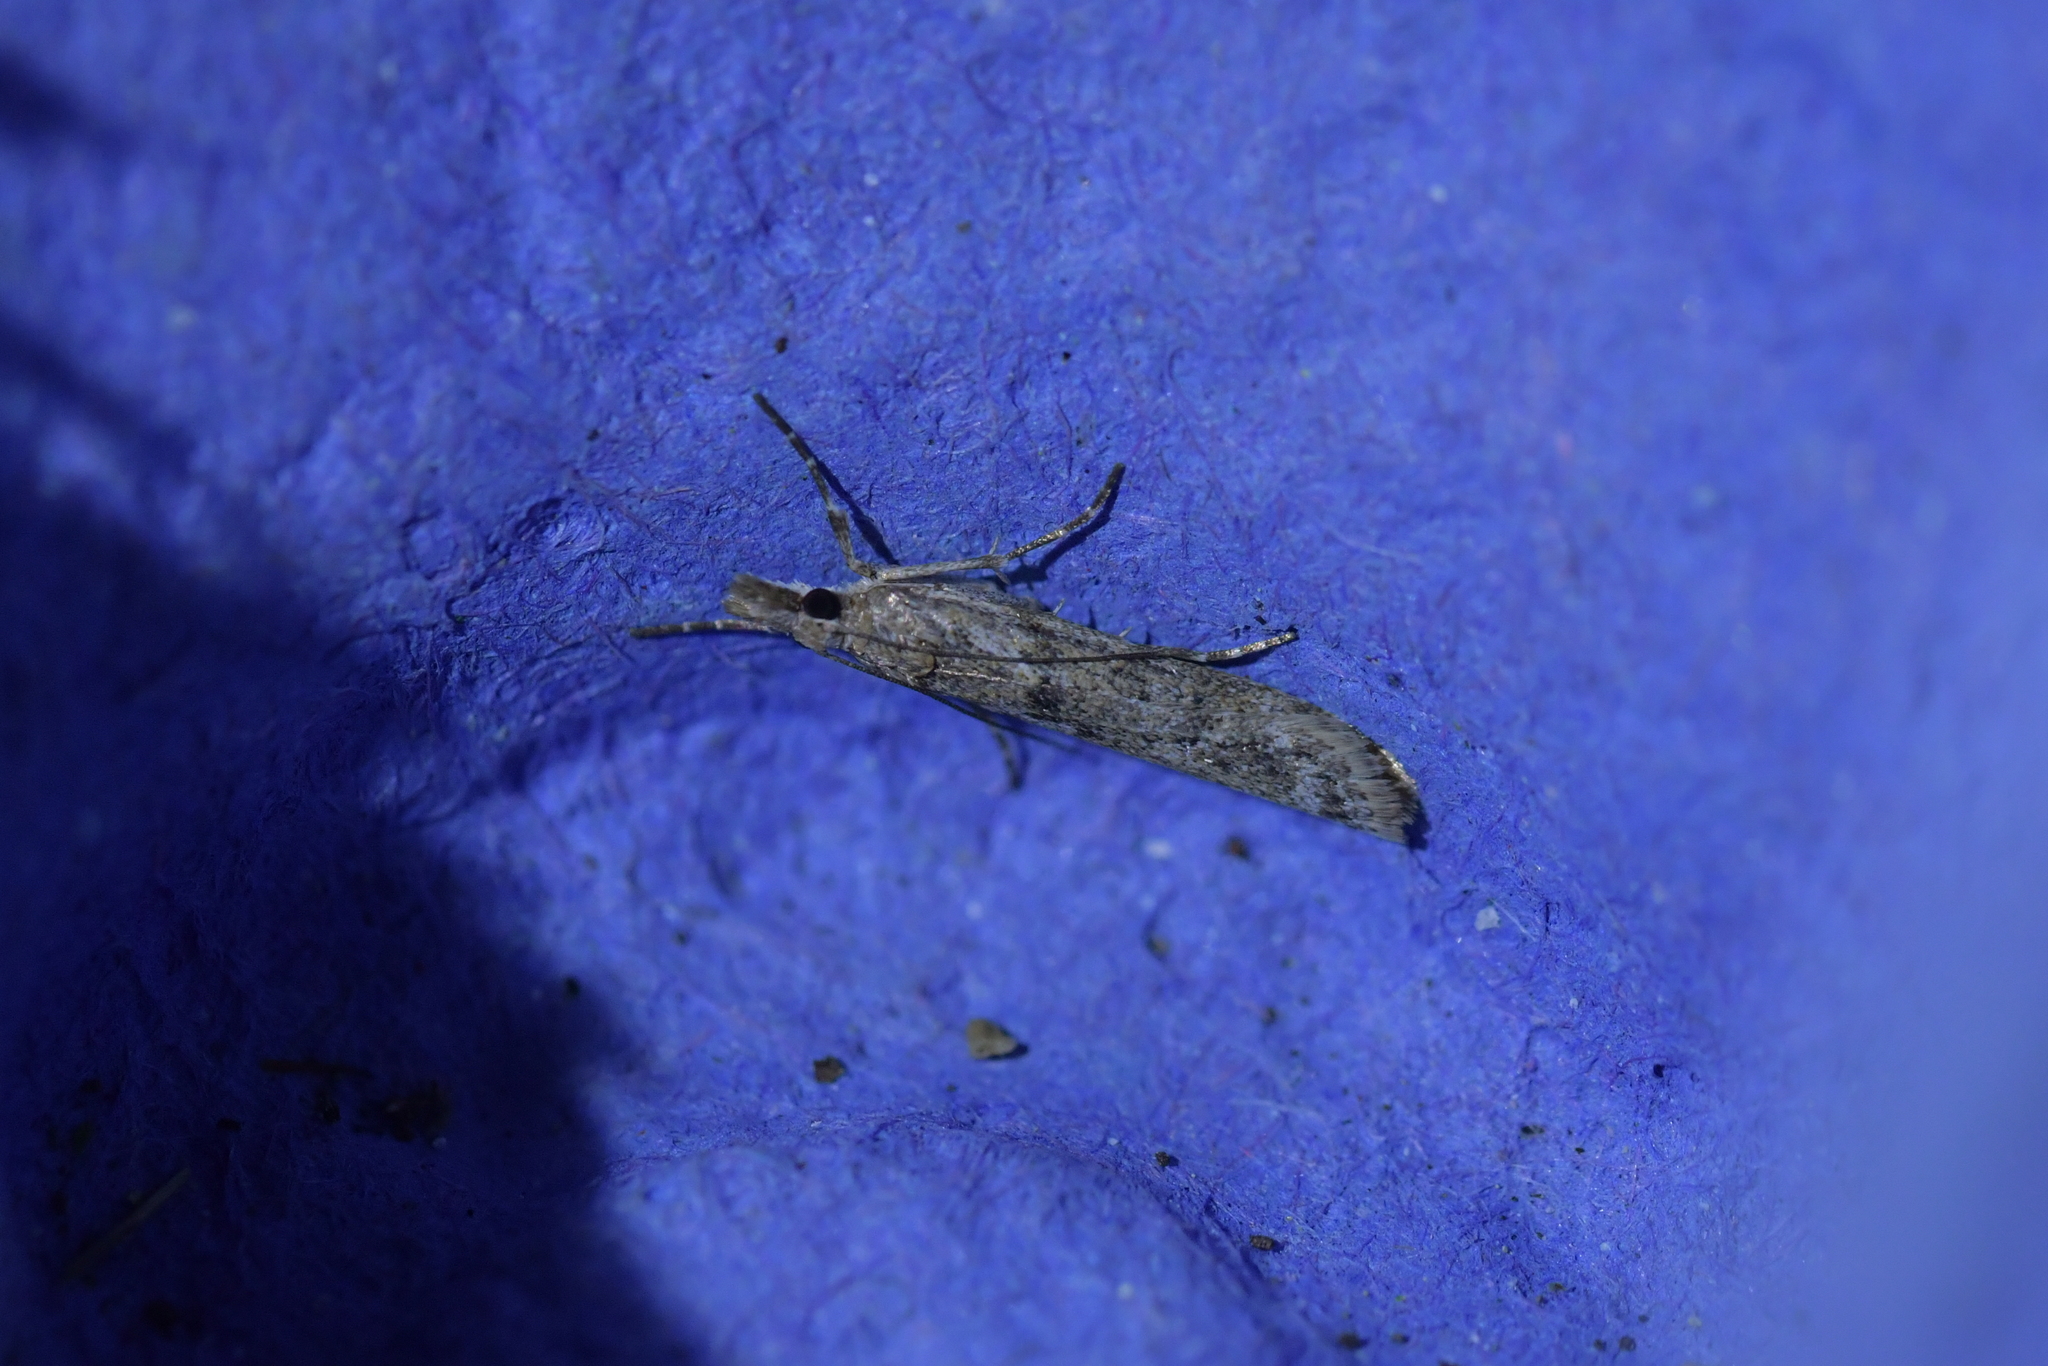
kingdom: Animalia
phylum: Arthropoda
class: Insecta
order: Lepidoptera
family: Crambidae
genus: Eudonia
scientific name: Eudonia leptalea
